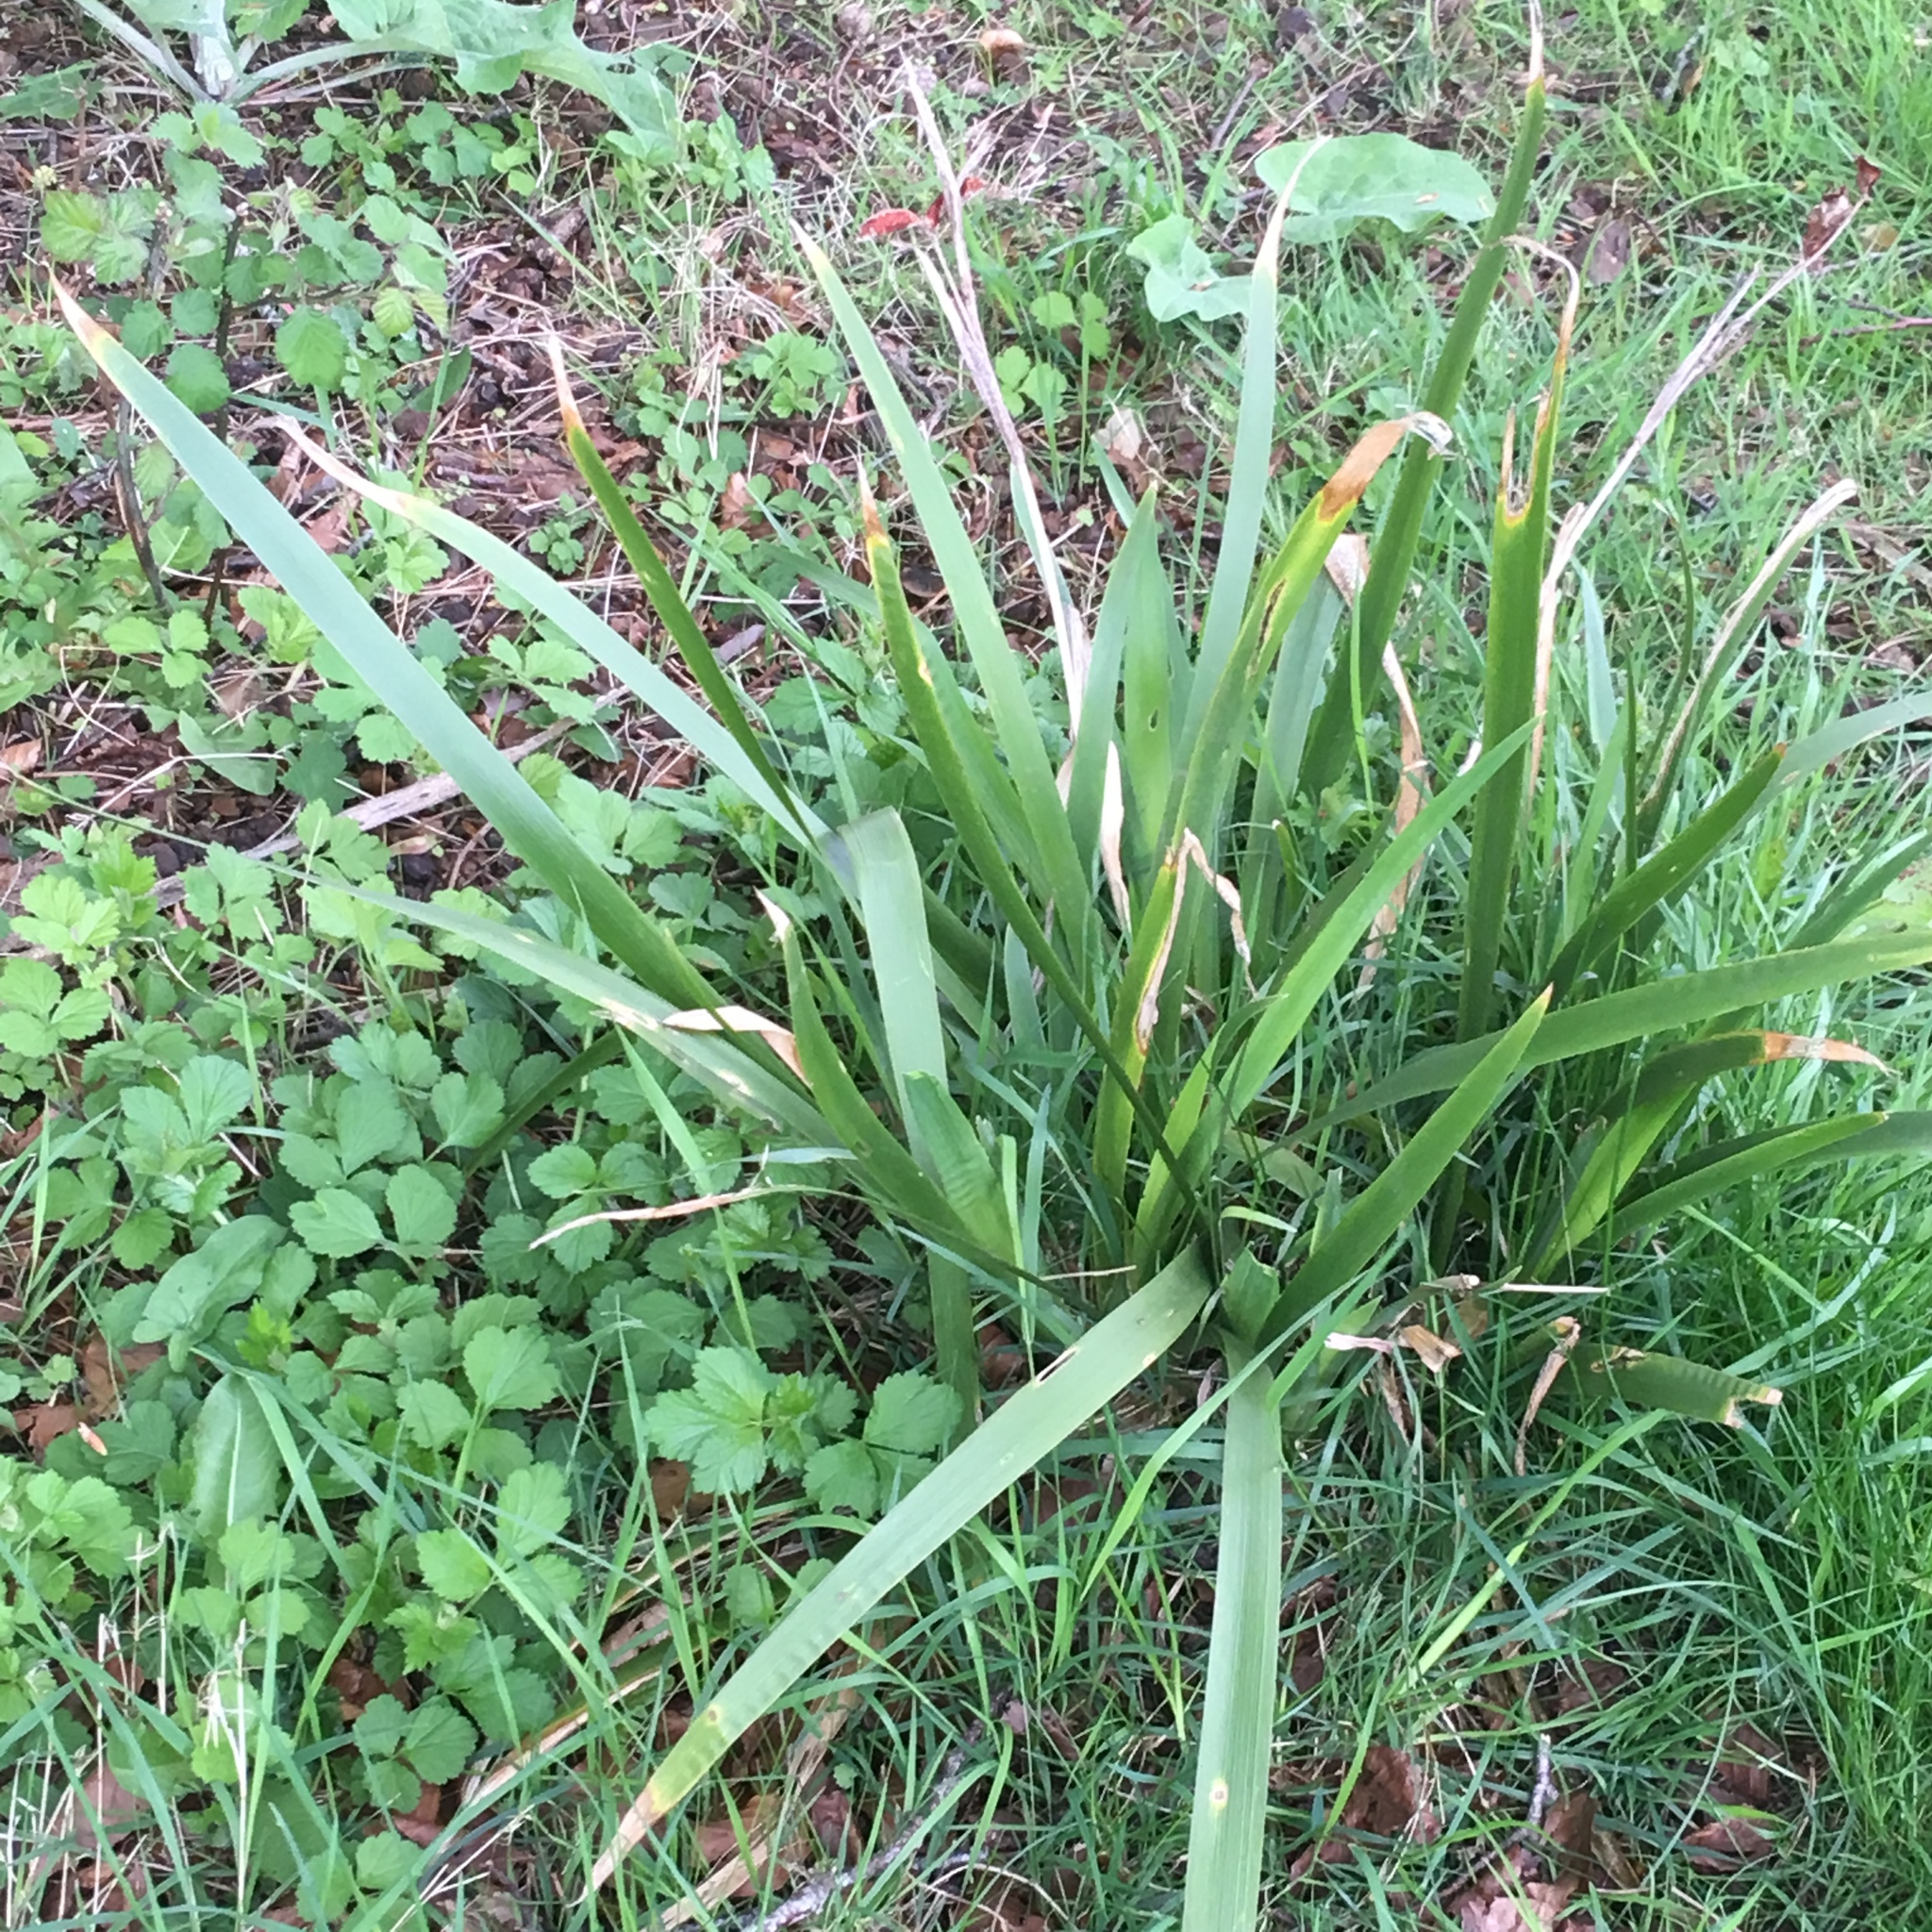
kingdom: Plantae
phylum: Tracheophyta
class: Liliopsida
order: Asparagales
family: Iridaceae
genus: Iris
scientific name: Iris foetidissima
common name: Stinking iris
